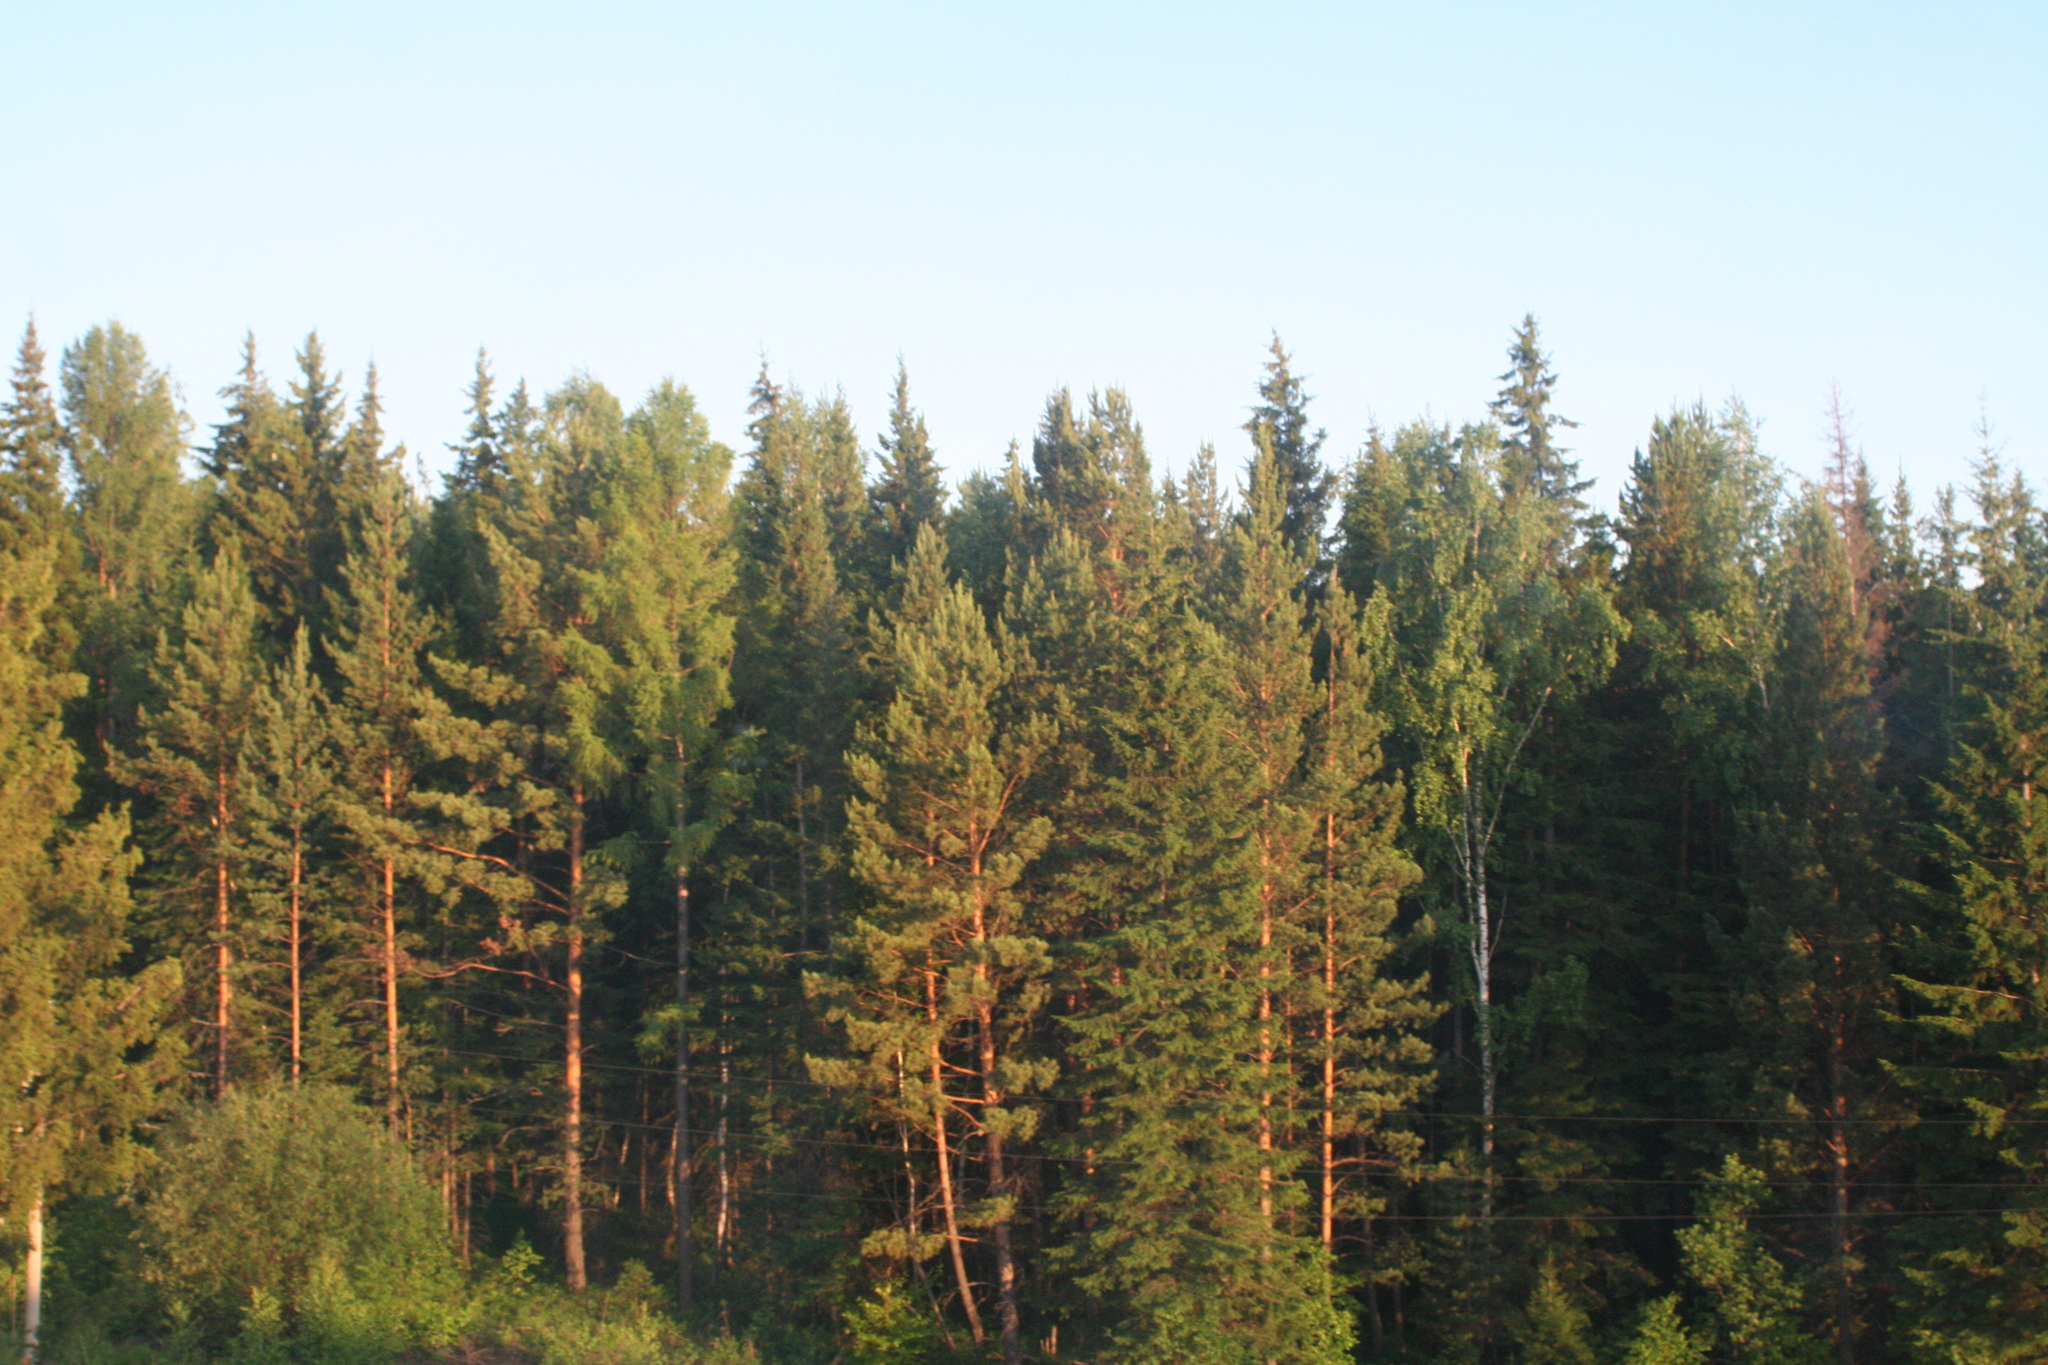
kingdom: Plantae
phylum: Tracheophyta
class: Pinopsida
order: Pinales
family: Pinaceae
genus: Pinus
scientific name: Pinus sylvestris
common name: Scots pine
